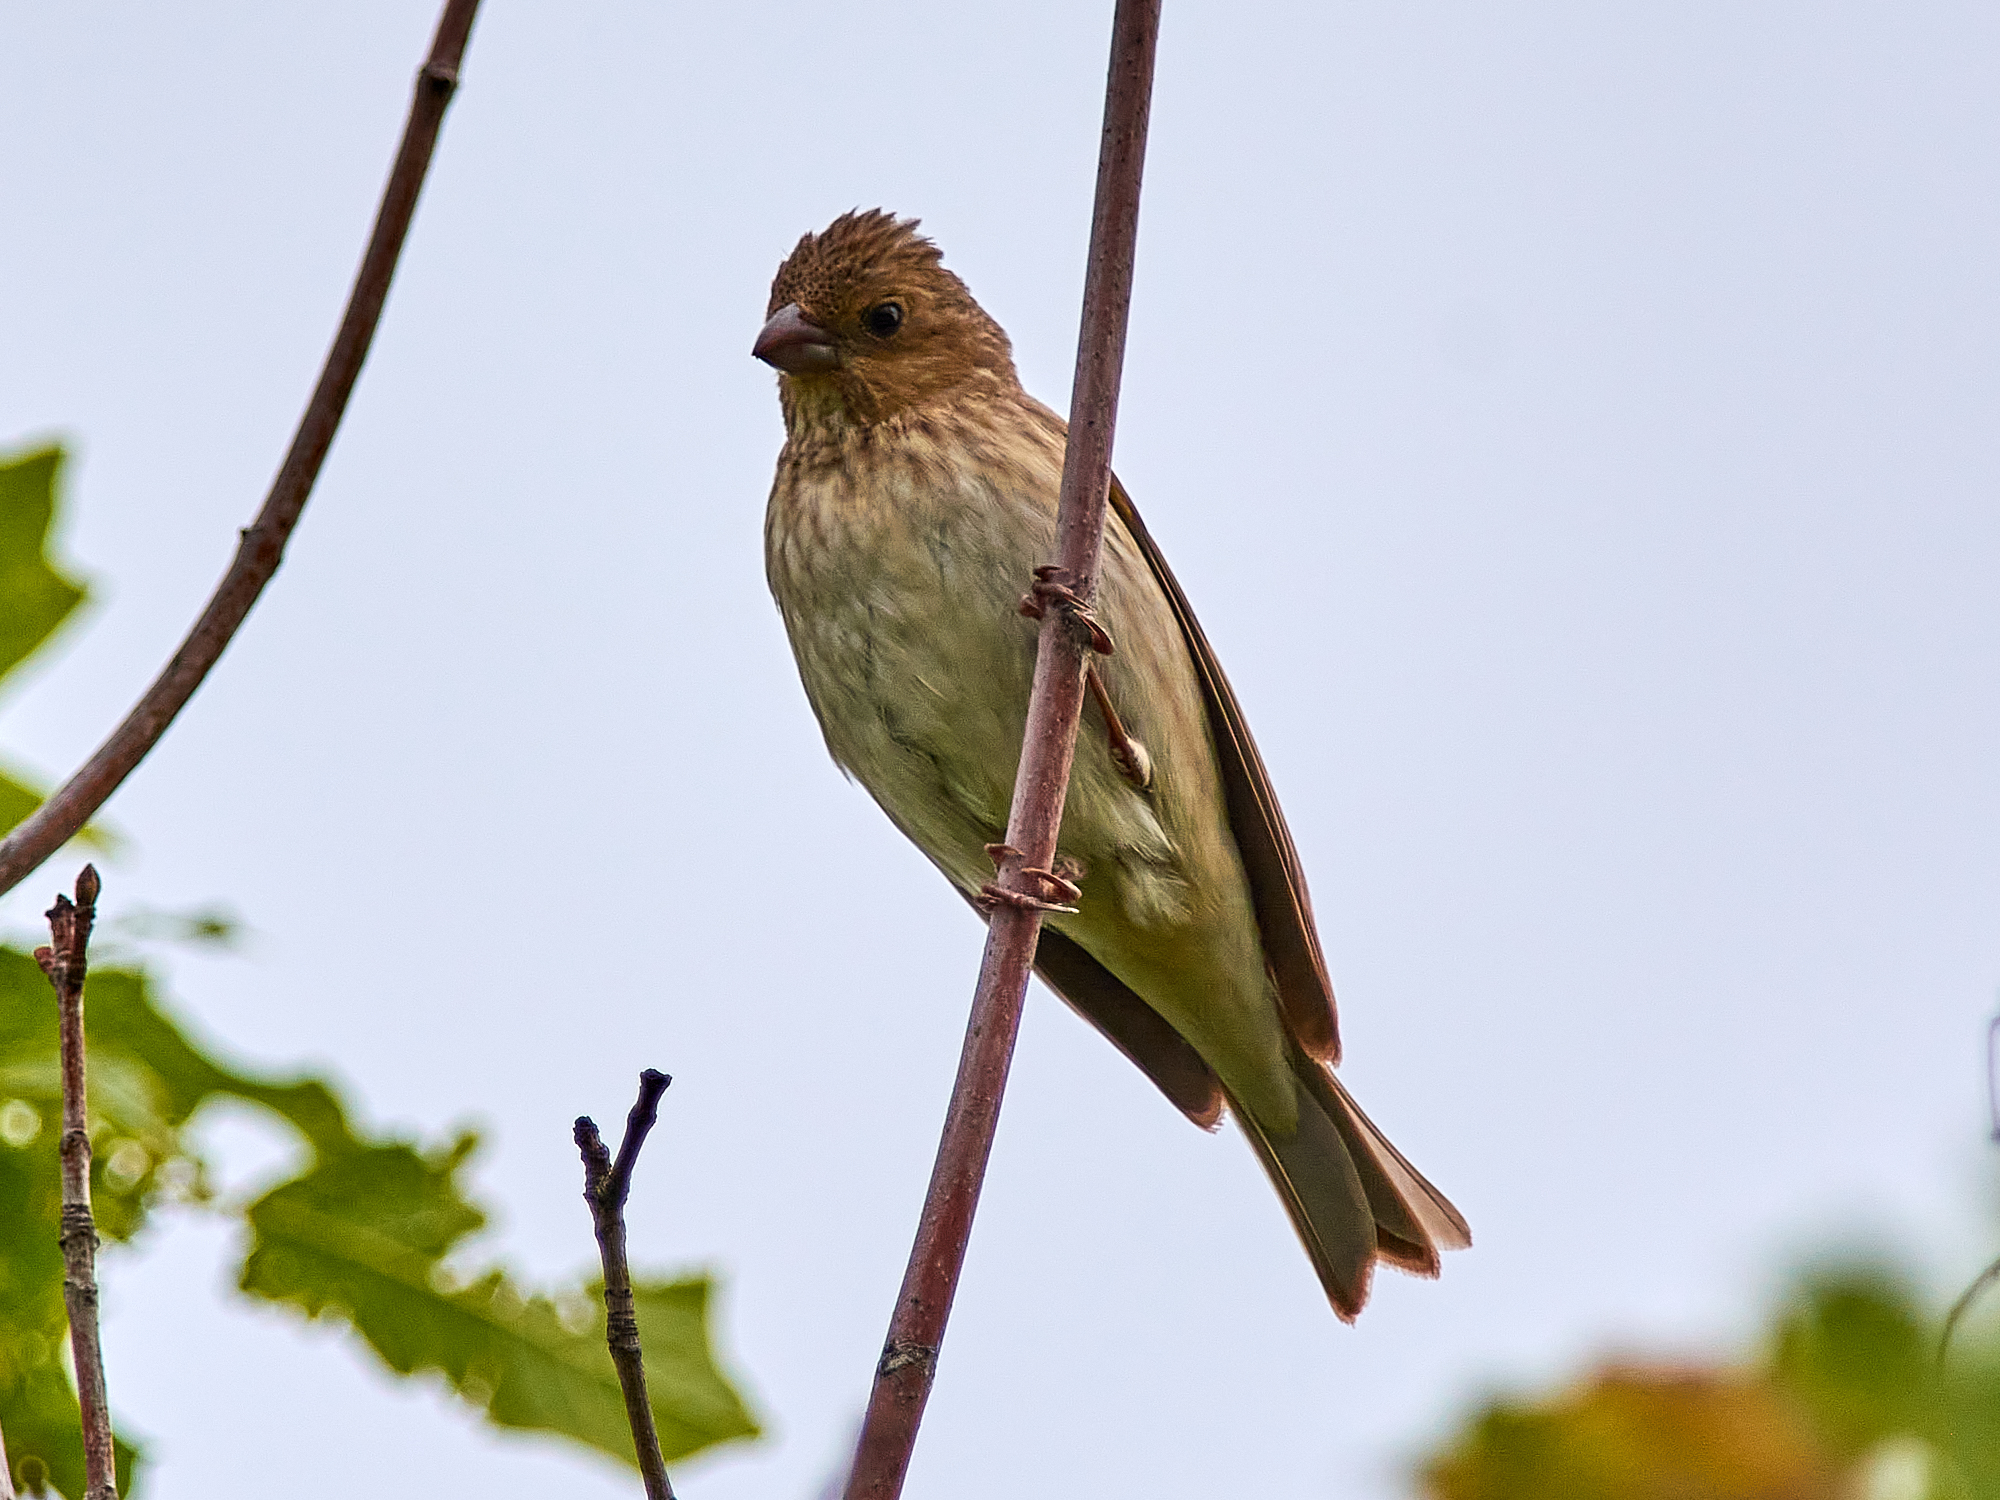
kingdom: Animalia
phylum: Chordata
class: Aves
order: Passeriformes
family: Fringillidae
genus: Carpodacus
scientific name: Carpodacus erythrinus
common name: Common rosefinch
